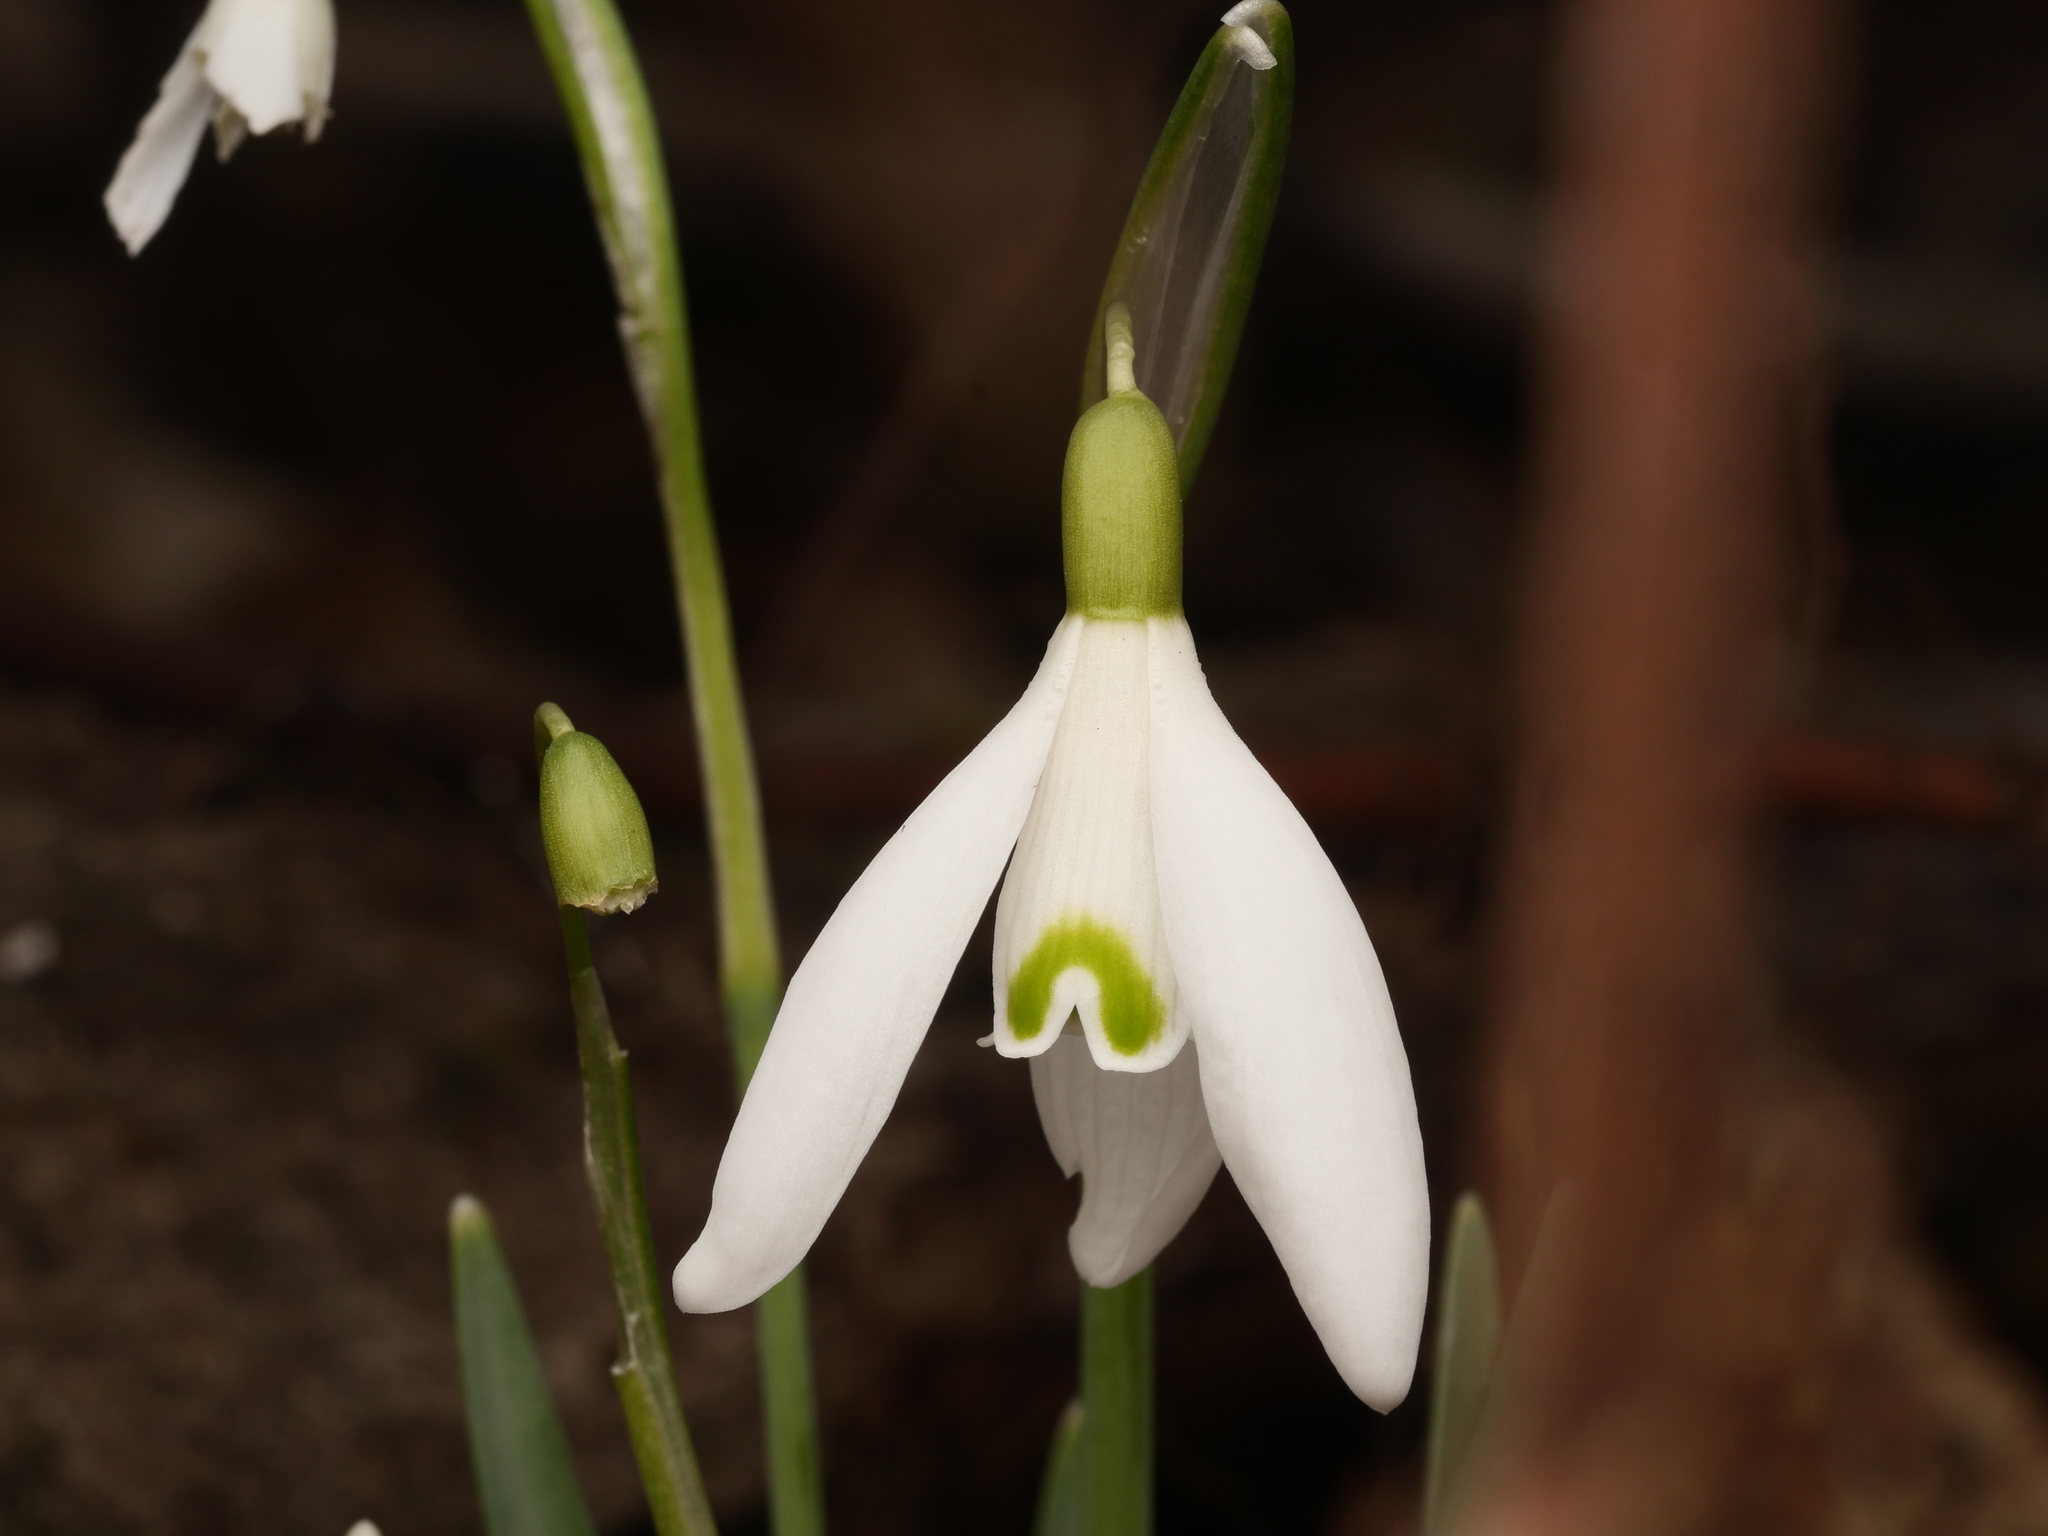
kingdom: Plantae
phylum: Tracheophyta
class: Liliopsida
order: Asparagales
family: Amaryllidaceae
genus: Galanthus
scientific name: Galanthus nivalis
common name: Snowdrop
